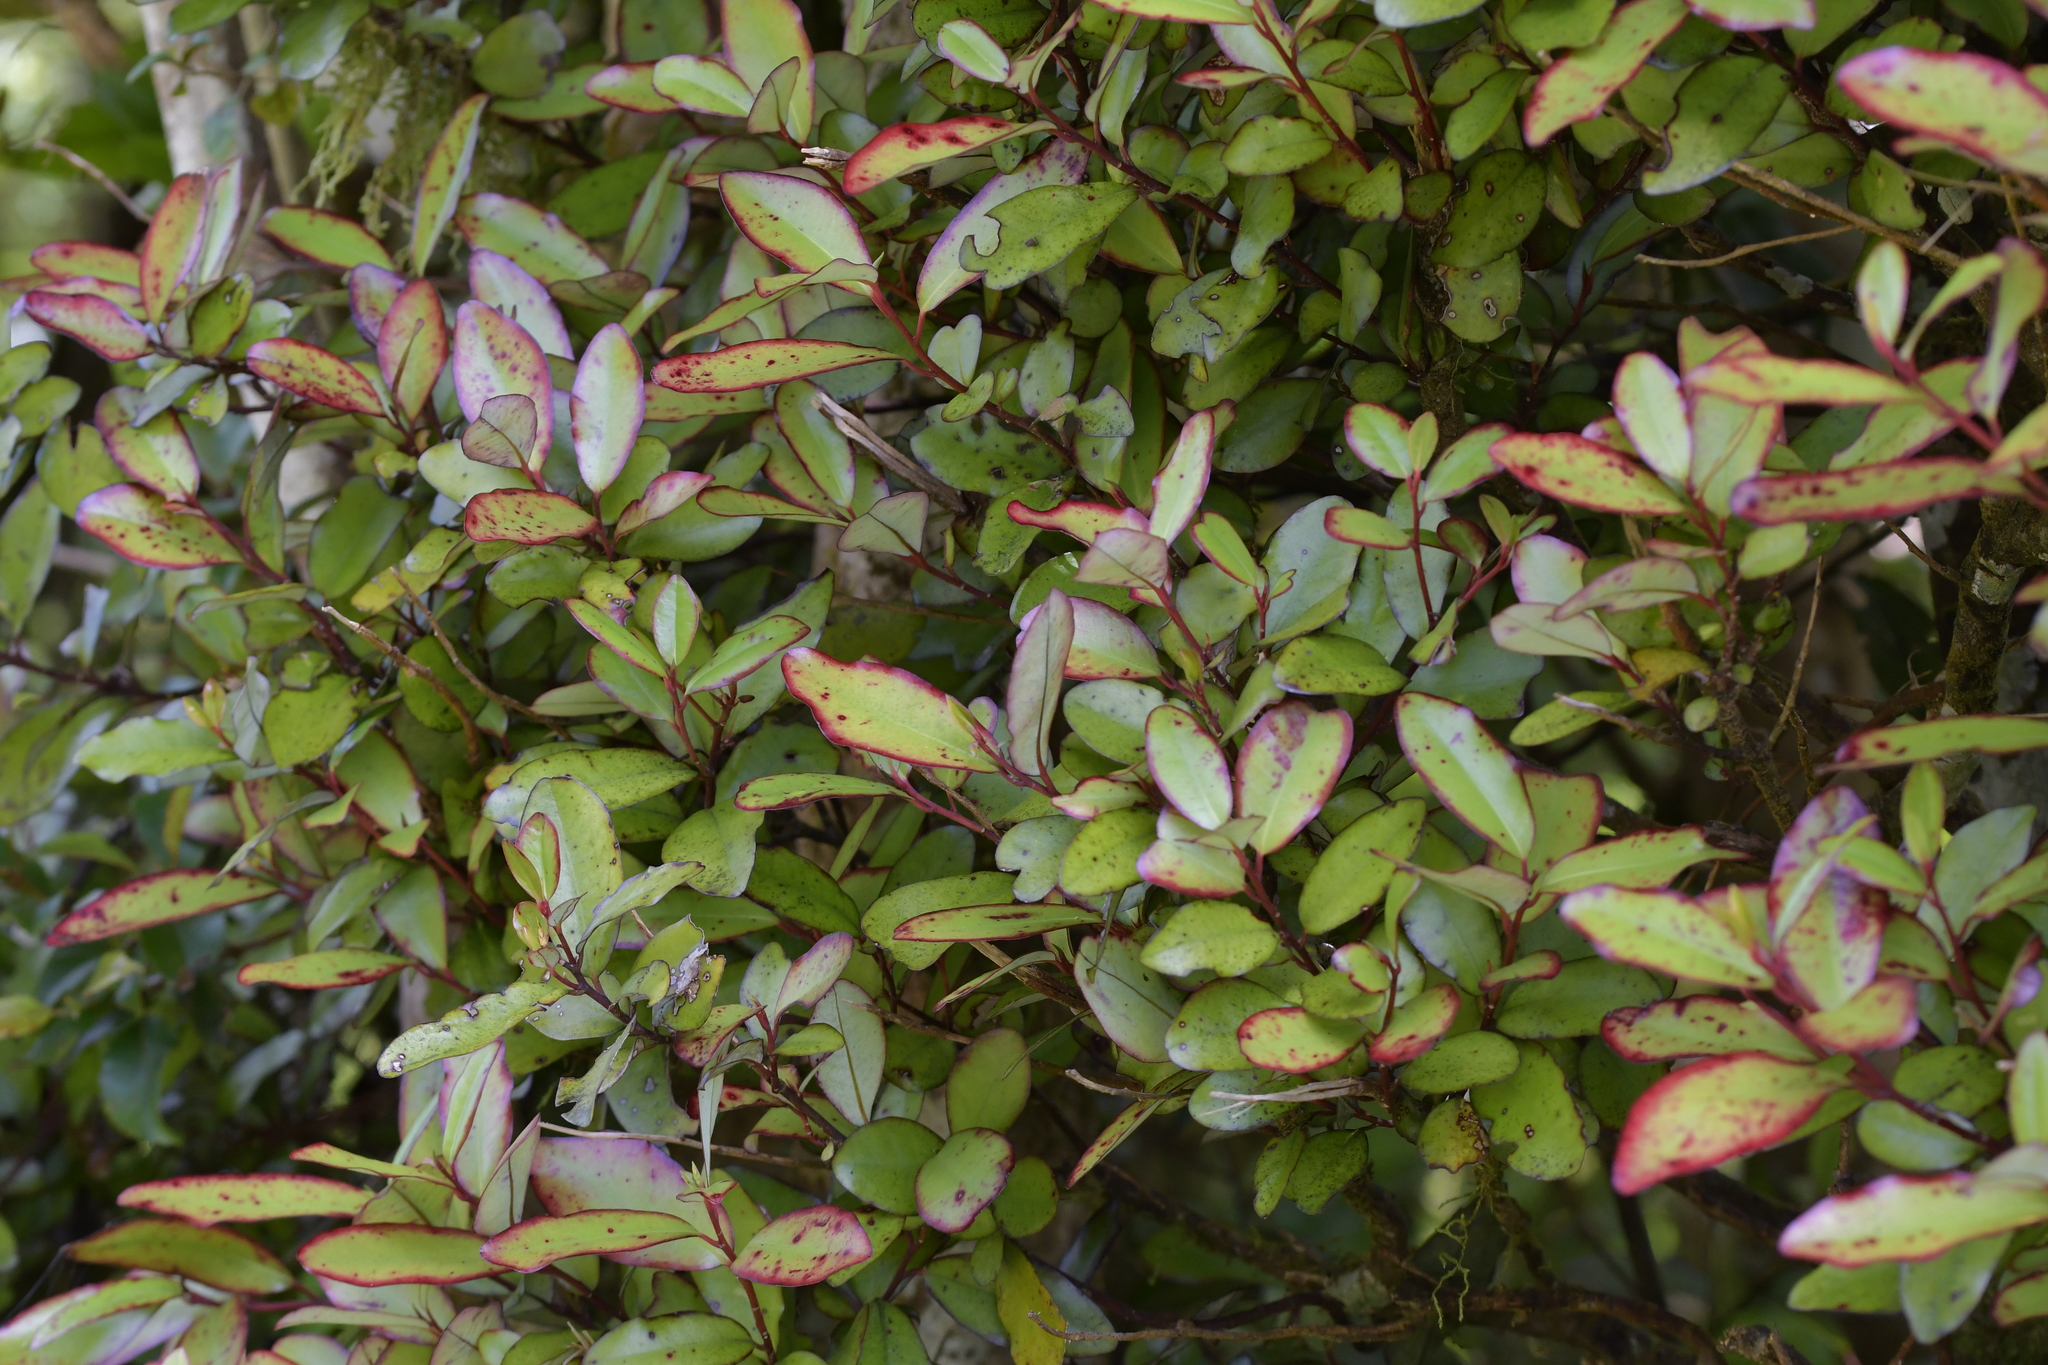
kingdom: Plantae
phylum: Tracheophyta
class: Magnoliopsida
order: Canellales
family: Winteraceae
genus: Pseudowintera
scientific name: Pseudowintera colorata
